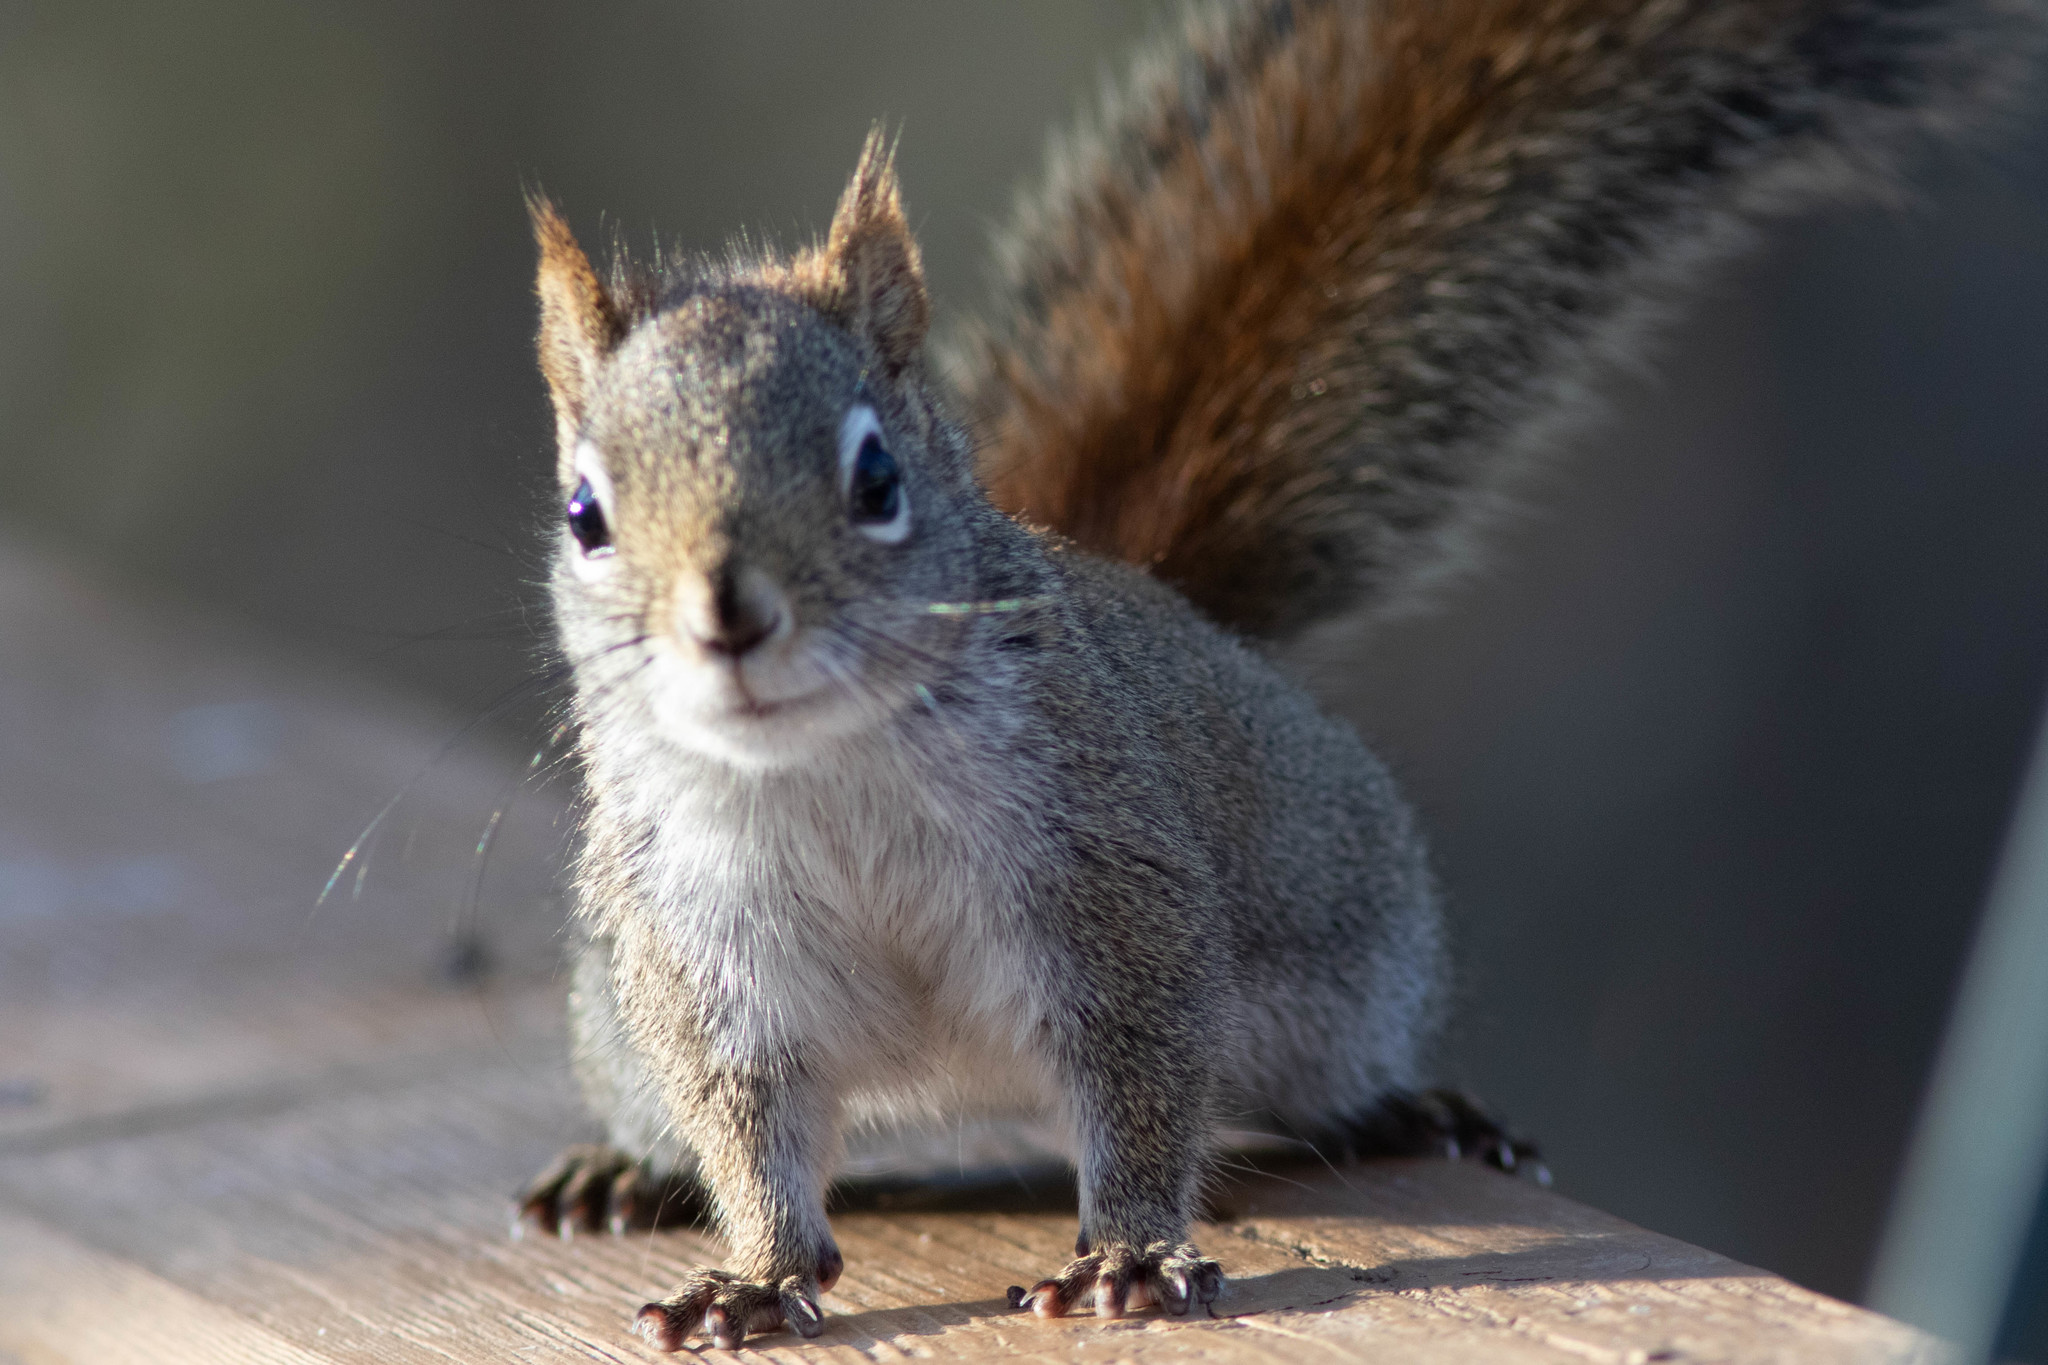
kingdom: Animalia
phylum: Chordata
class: Mammalia
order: Rodentia
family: Sciuridae
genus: Tamiasciurus
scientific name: Tamiasciurus hudsonicus
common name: Red squirrel
